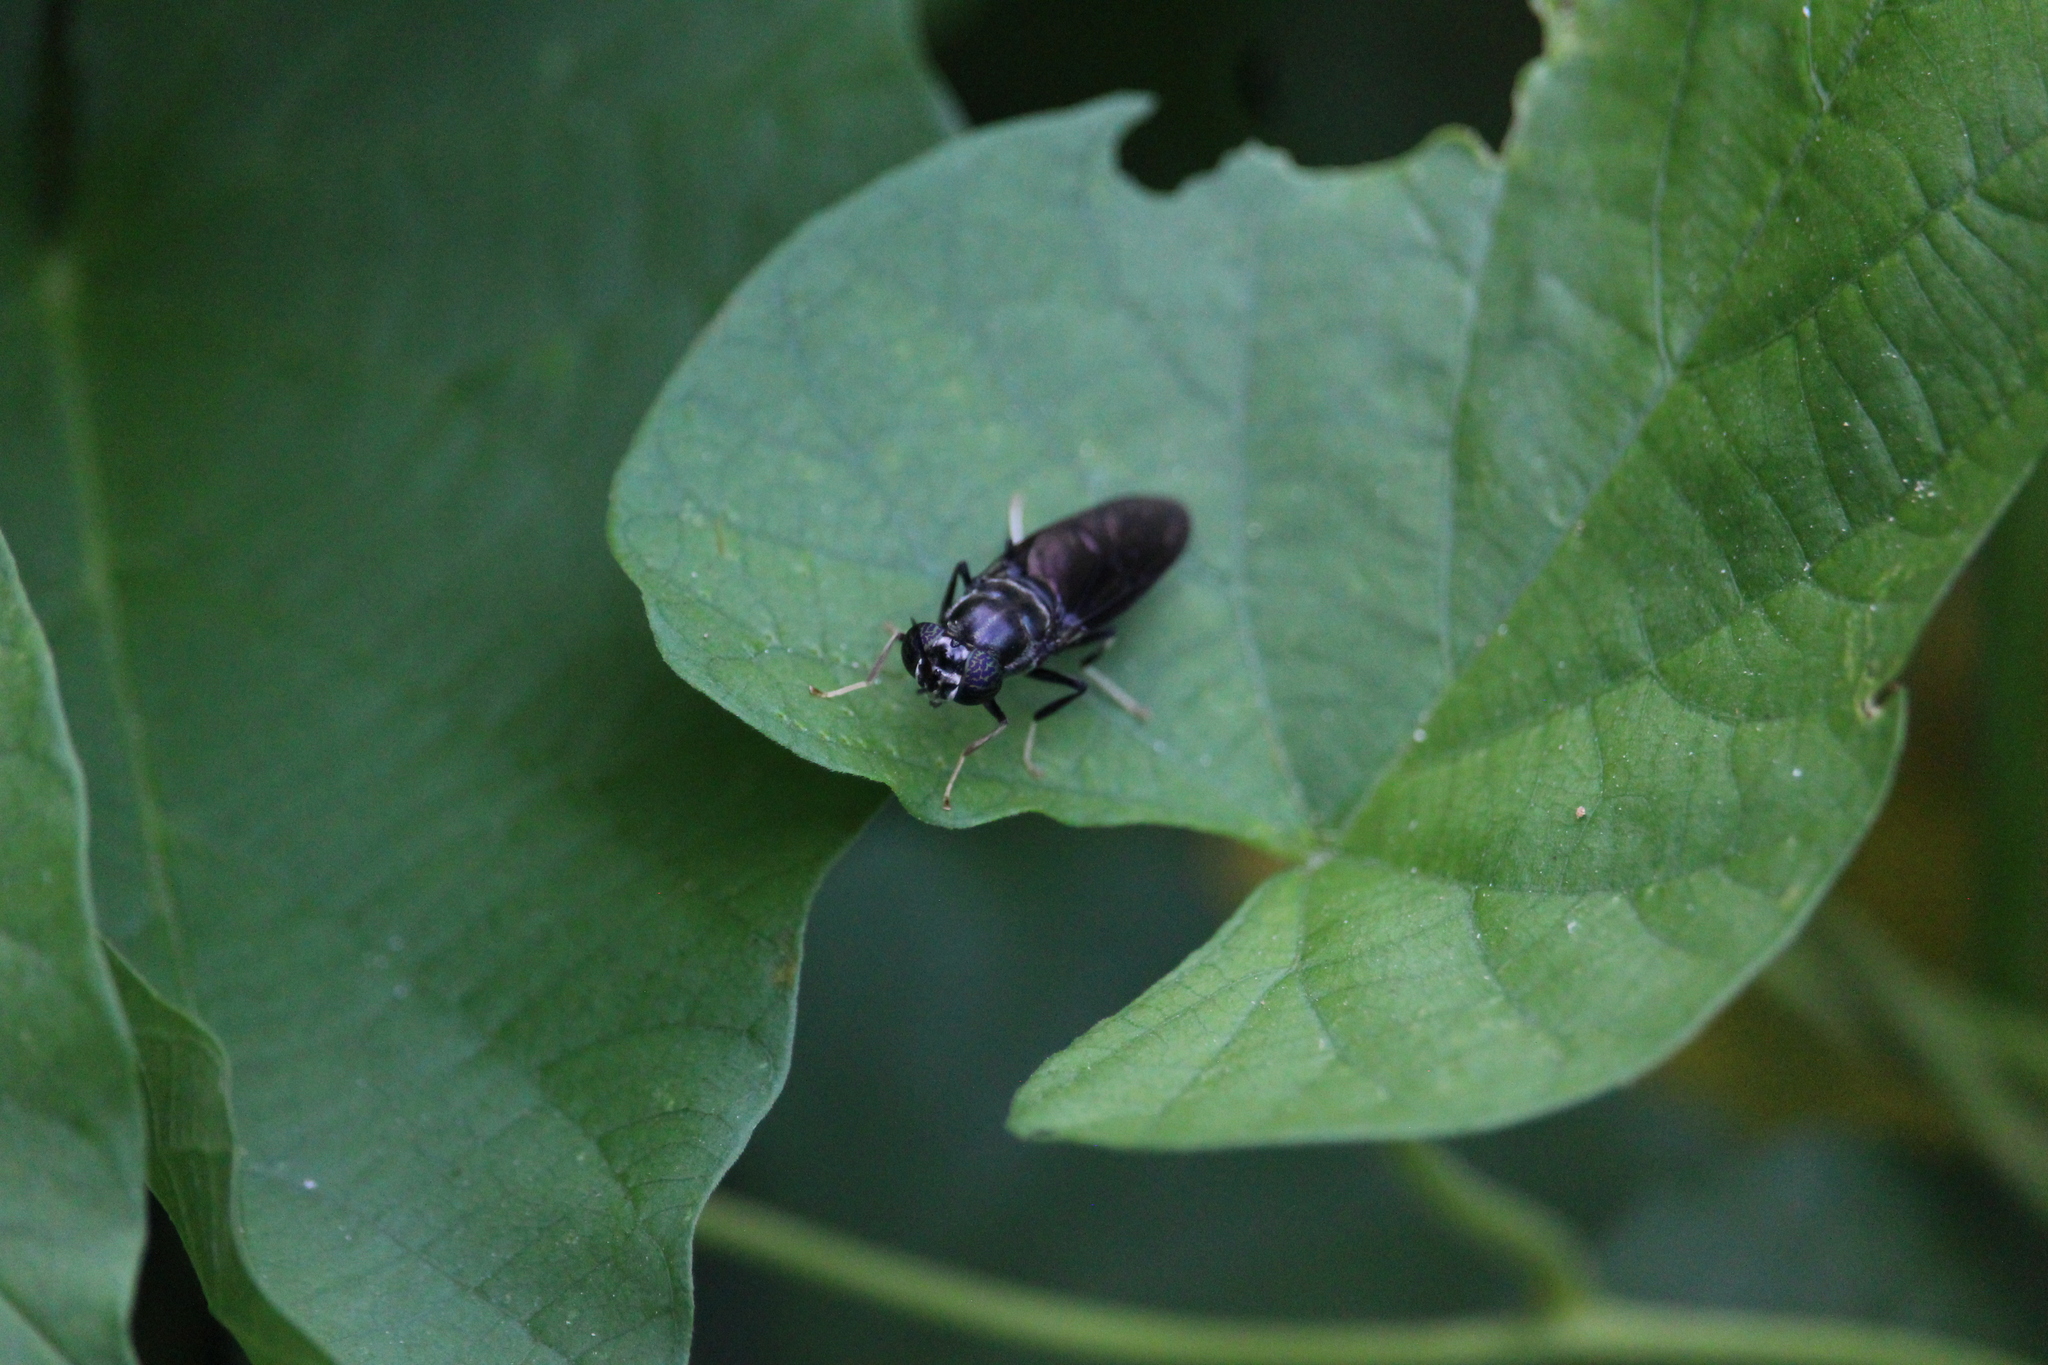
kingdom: Animalia
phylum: Arthropoda
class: Insecta
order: Diptera
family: Stratiomyidae
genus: Hermetia
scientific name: Hermetia illucens
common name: Black soldier fly
